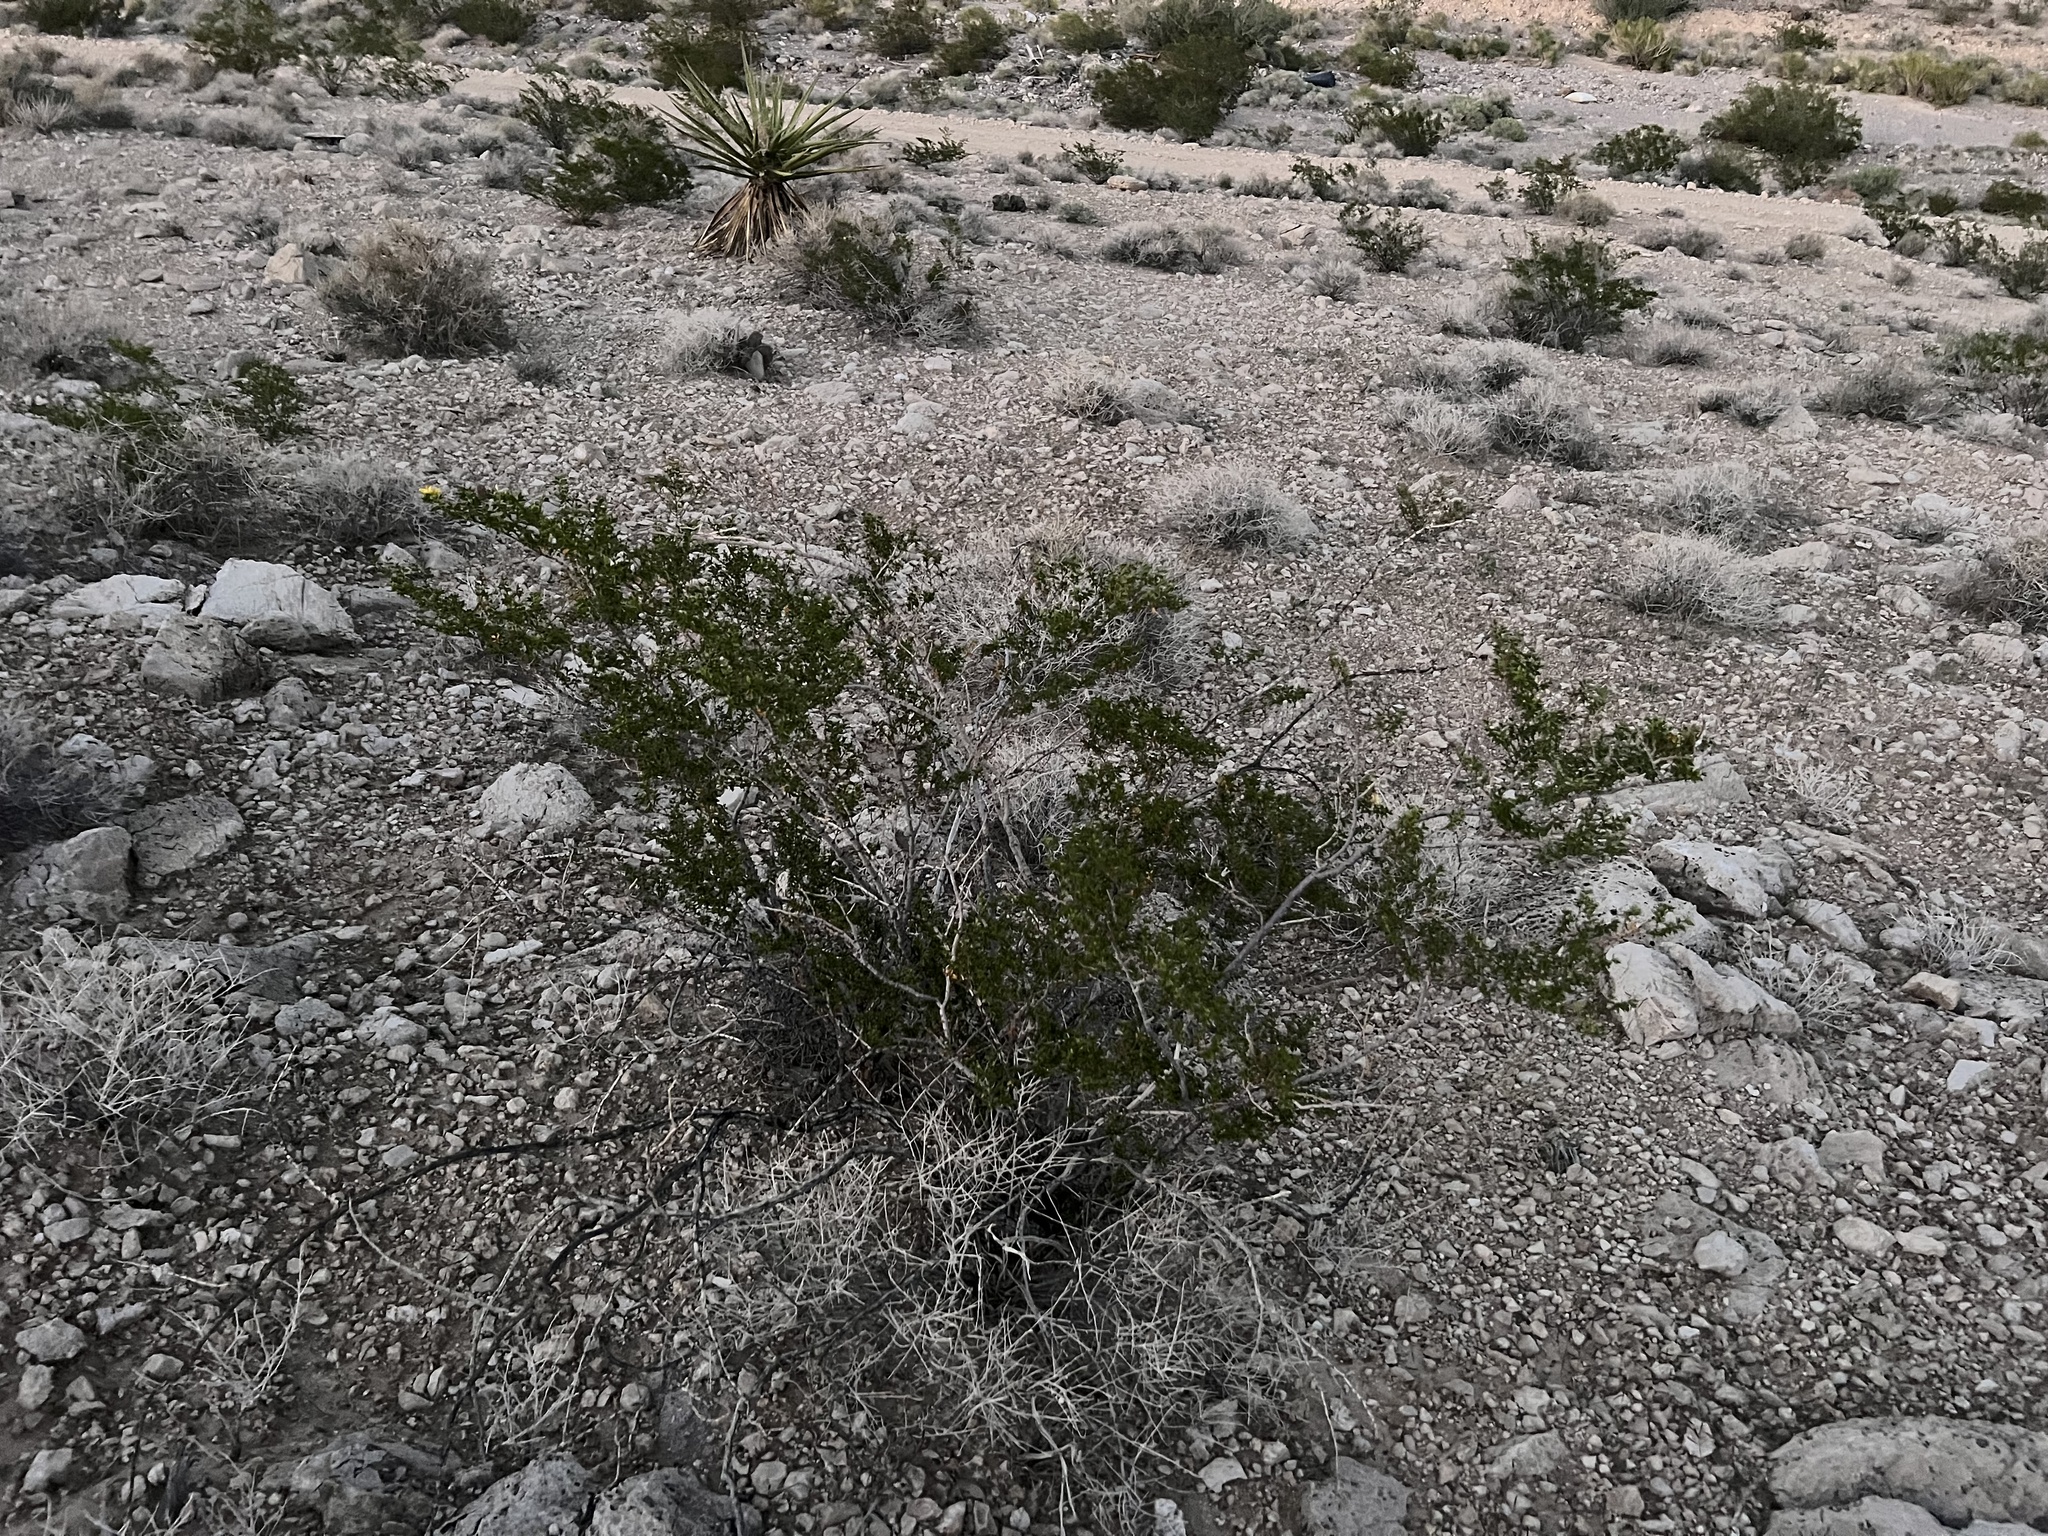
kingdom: Plantae
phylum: Tracheophyta
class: Magnoliopsida
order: Zygophyllales
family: Zygophyllaceae
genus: Larrea
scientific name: Larrea tridentata
